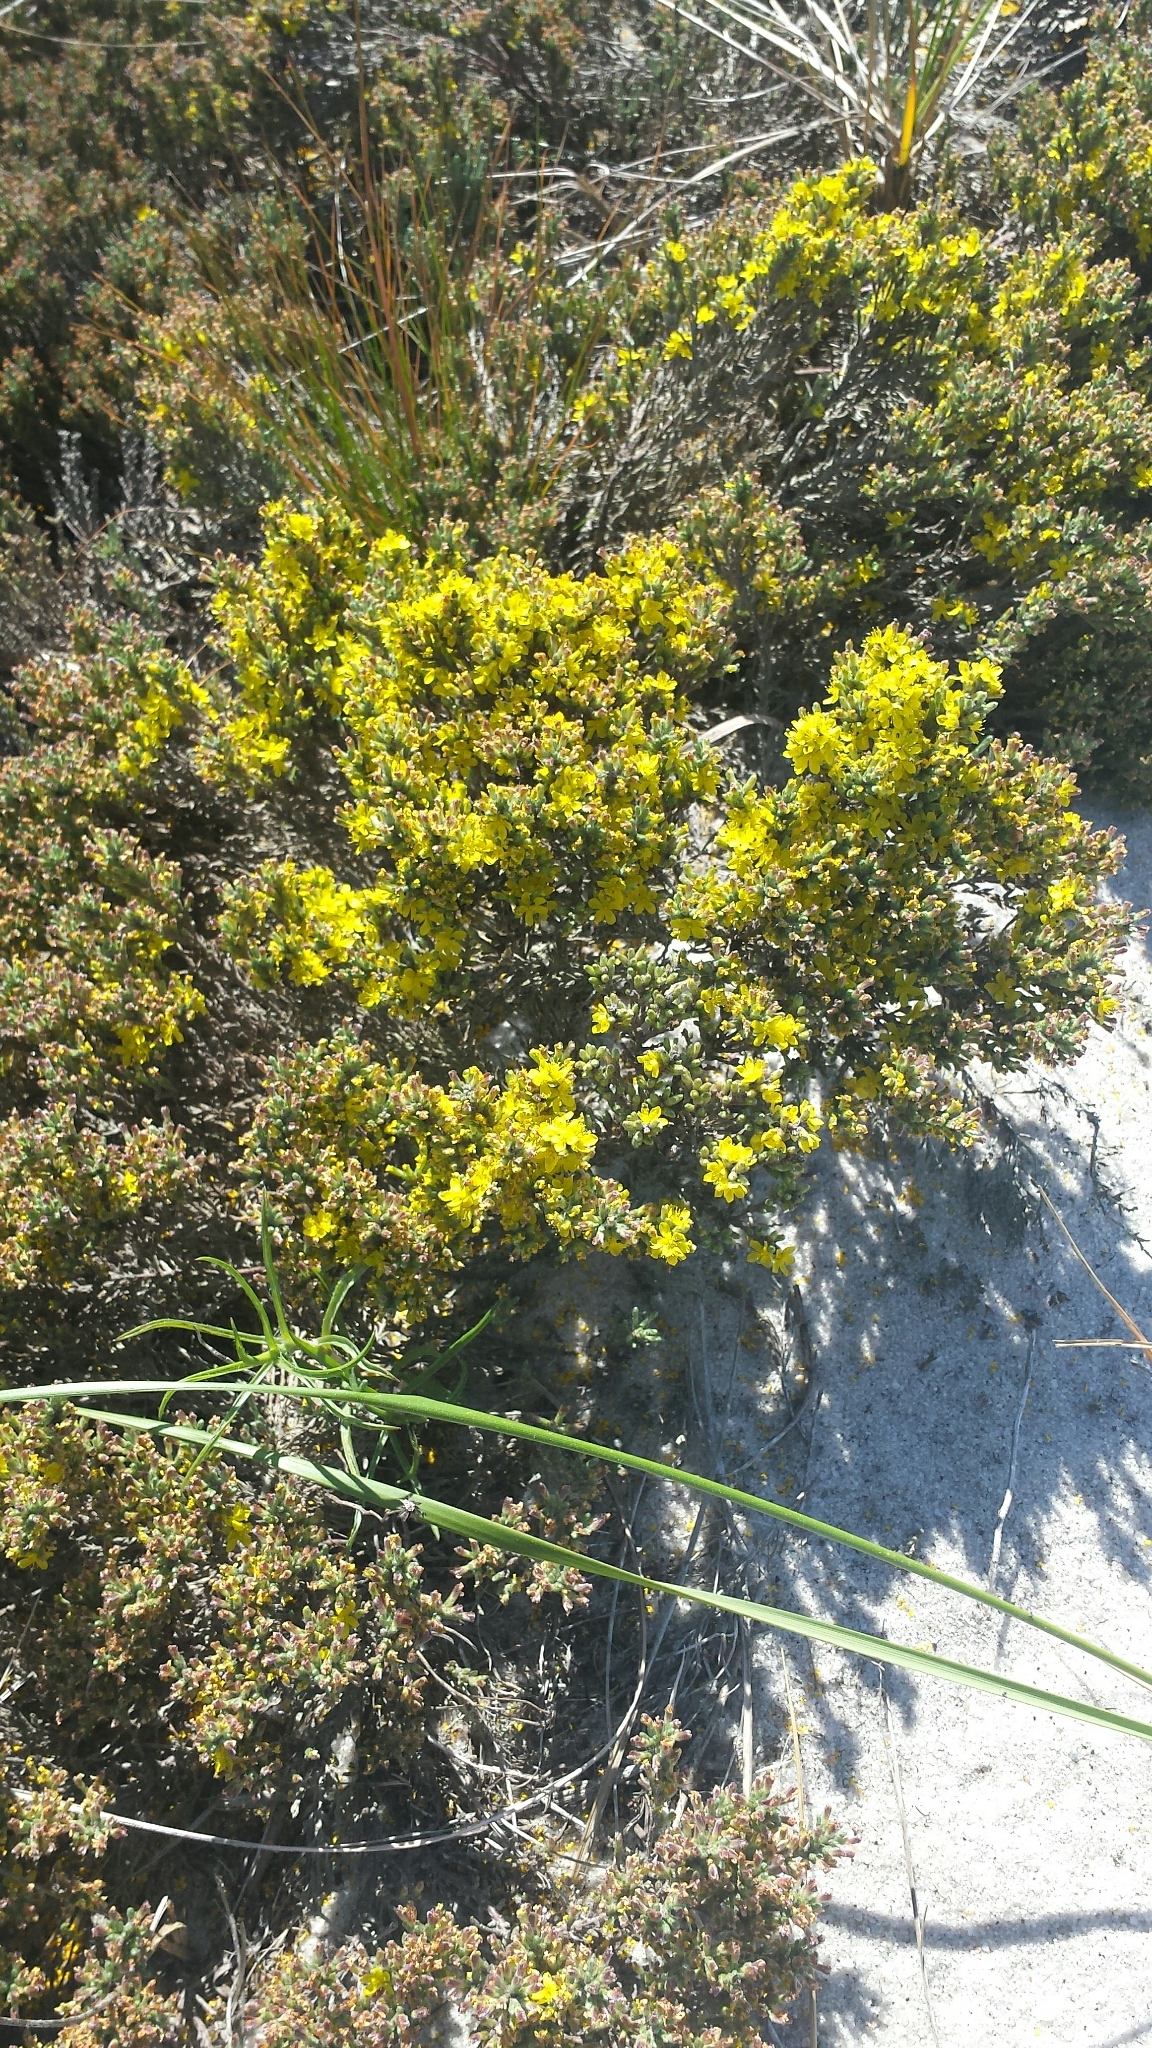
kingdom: Plantae
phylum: Tracheophyta
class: Magnoliopsida
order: Malvales
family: Cistaceae
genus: Hudsonia
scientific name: Hudsonia tomentosa
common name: Beach-heath
